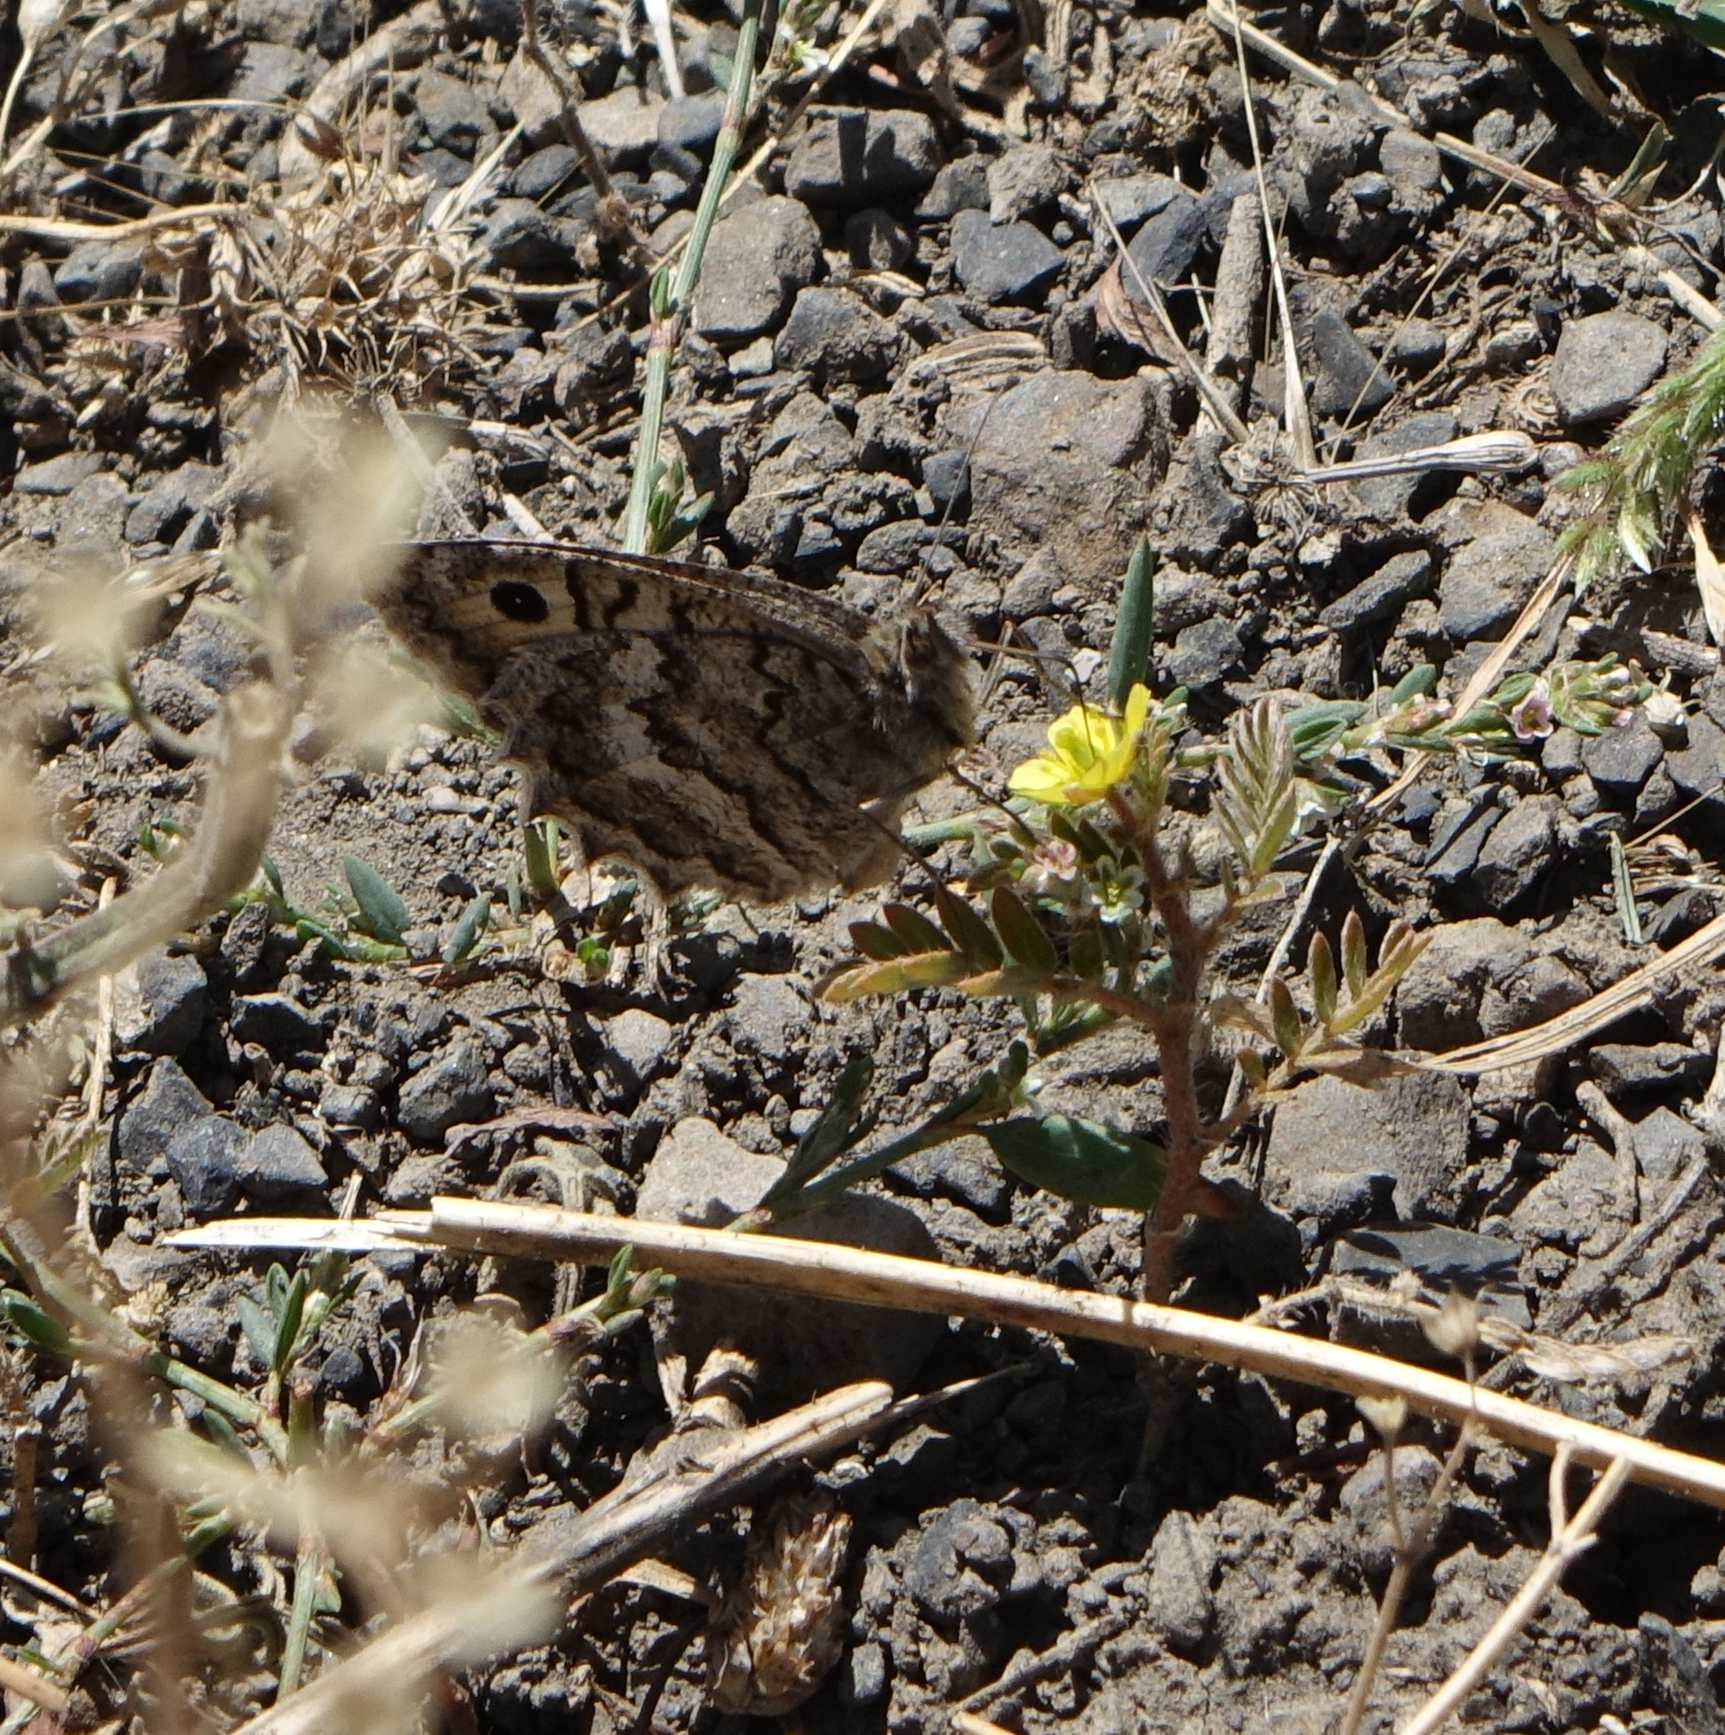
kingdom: Plantae
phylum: Tracheophyta
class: Magnoliopsida
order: Zygophyllales
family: Zygophyllaceae
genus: Tribulus
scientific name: Tribulus terrestris
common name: Puncturevine
